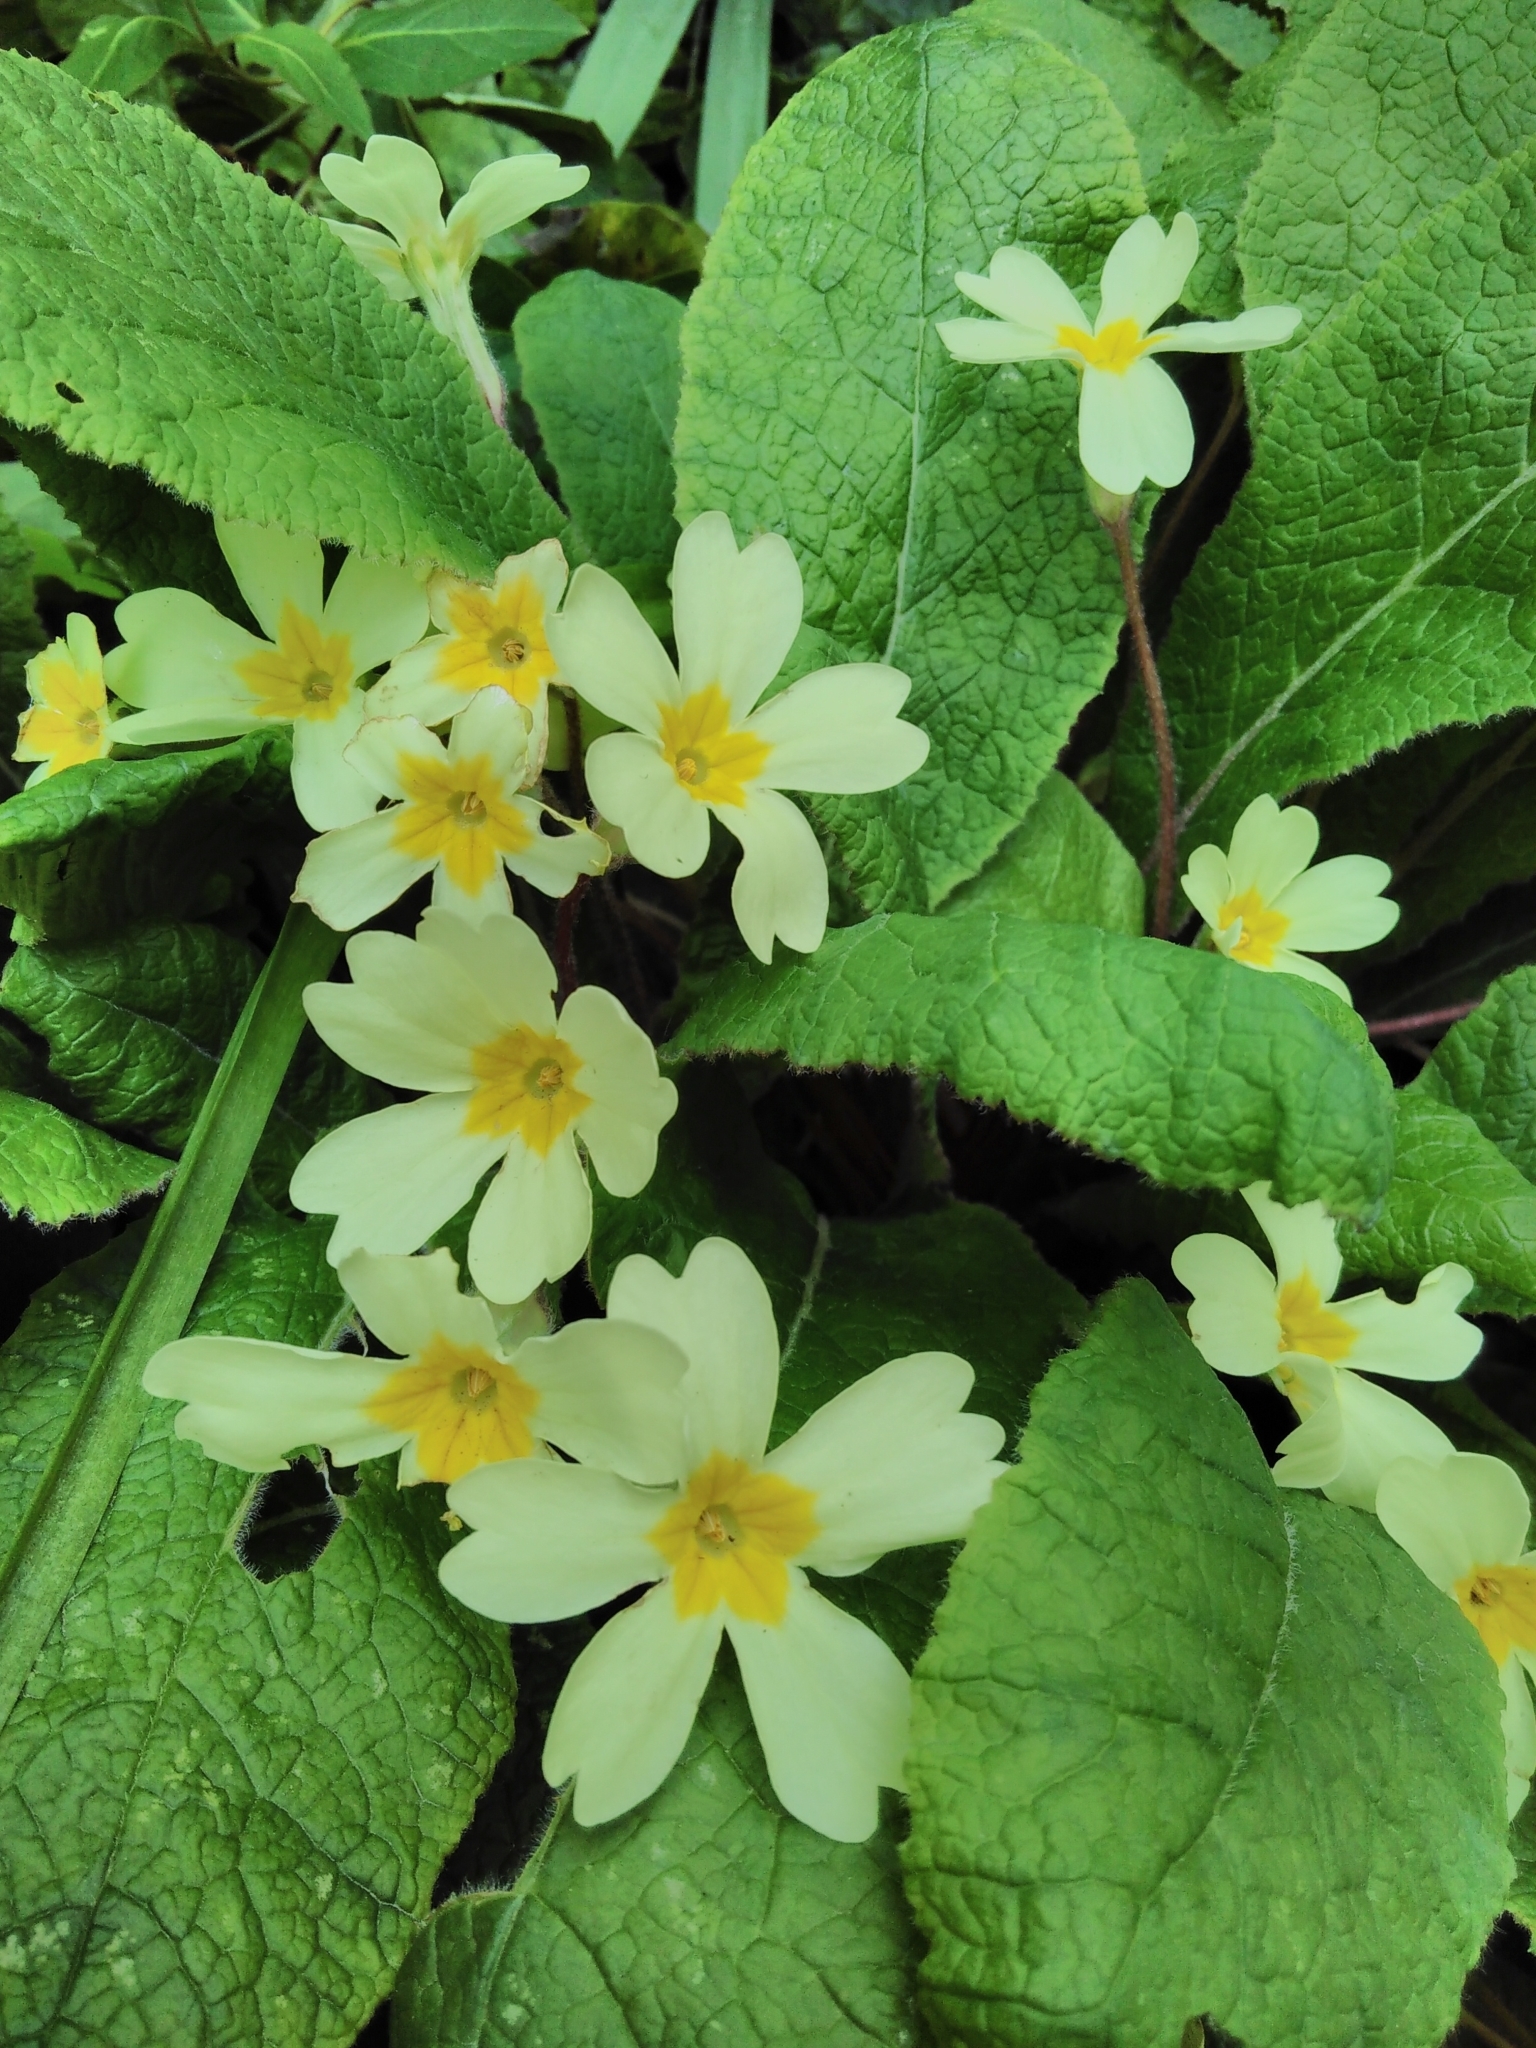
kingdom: Plantae
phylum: Tracheophyta
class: Magnoliopsida
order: Ericales
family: Primulaceae
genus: Primula
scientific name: Primula vulgaris
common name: Primrose
